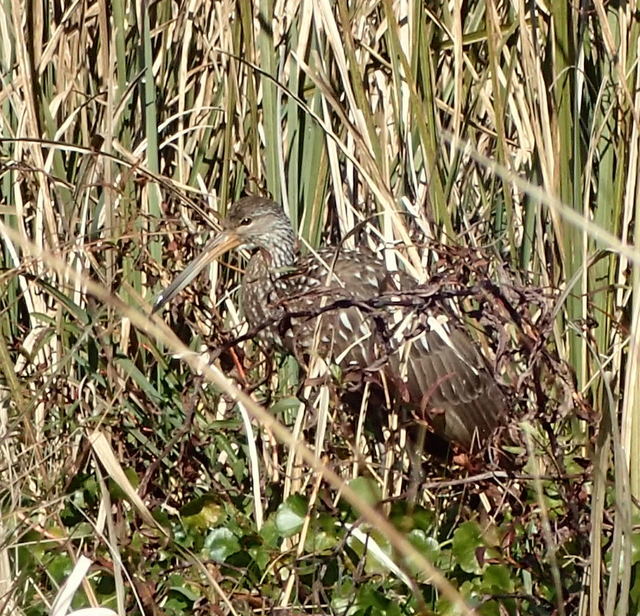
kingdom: Animalia
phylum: Chordata
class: Aves
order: Gruiformes
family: Aramidae
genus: Aramus
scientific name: Aramus guarauna
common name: Limpkin
